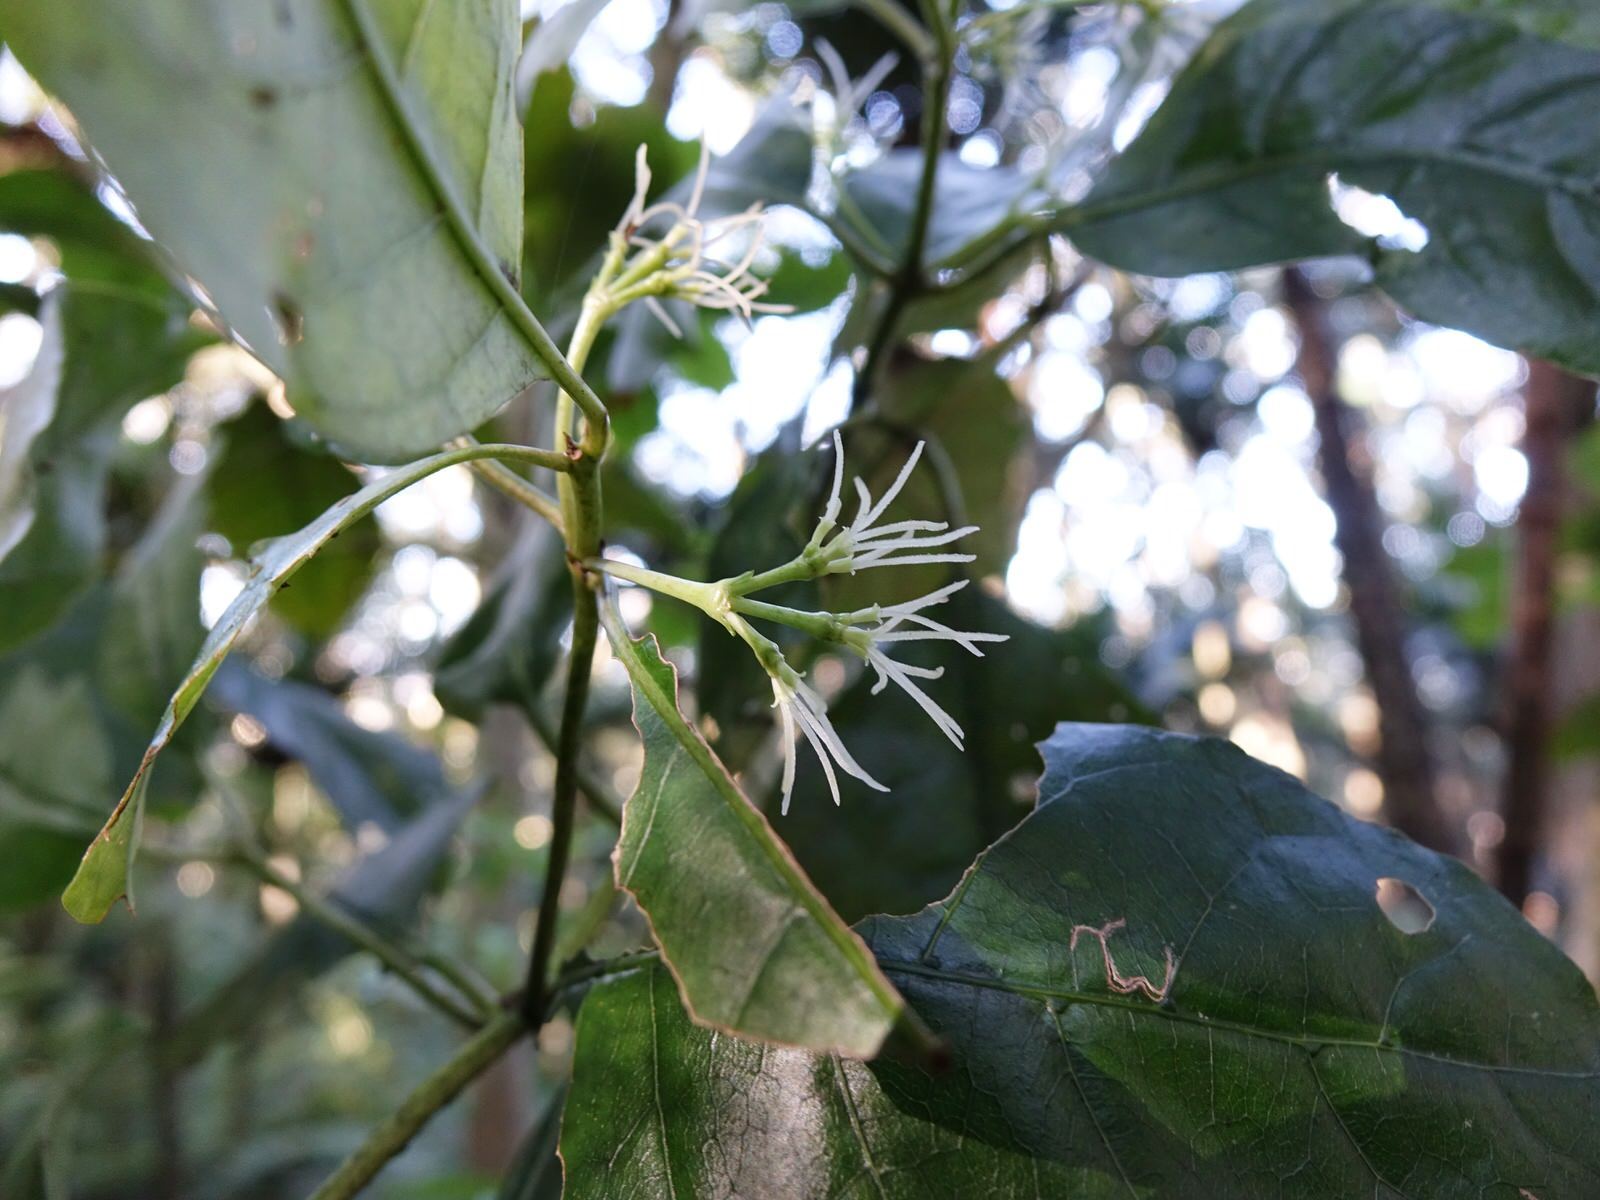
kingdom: Plantae
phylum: Tracheophyta
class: Magnoliopsida
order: Gentianales
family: Rubiaceae
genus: Coprosma
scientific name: Coprosma autumnalis
